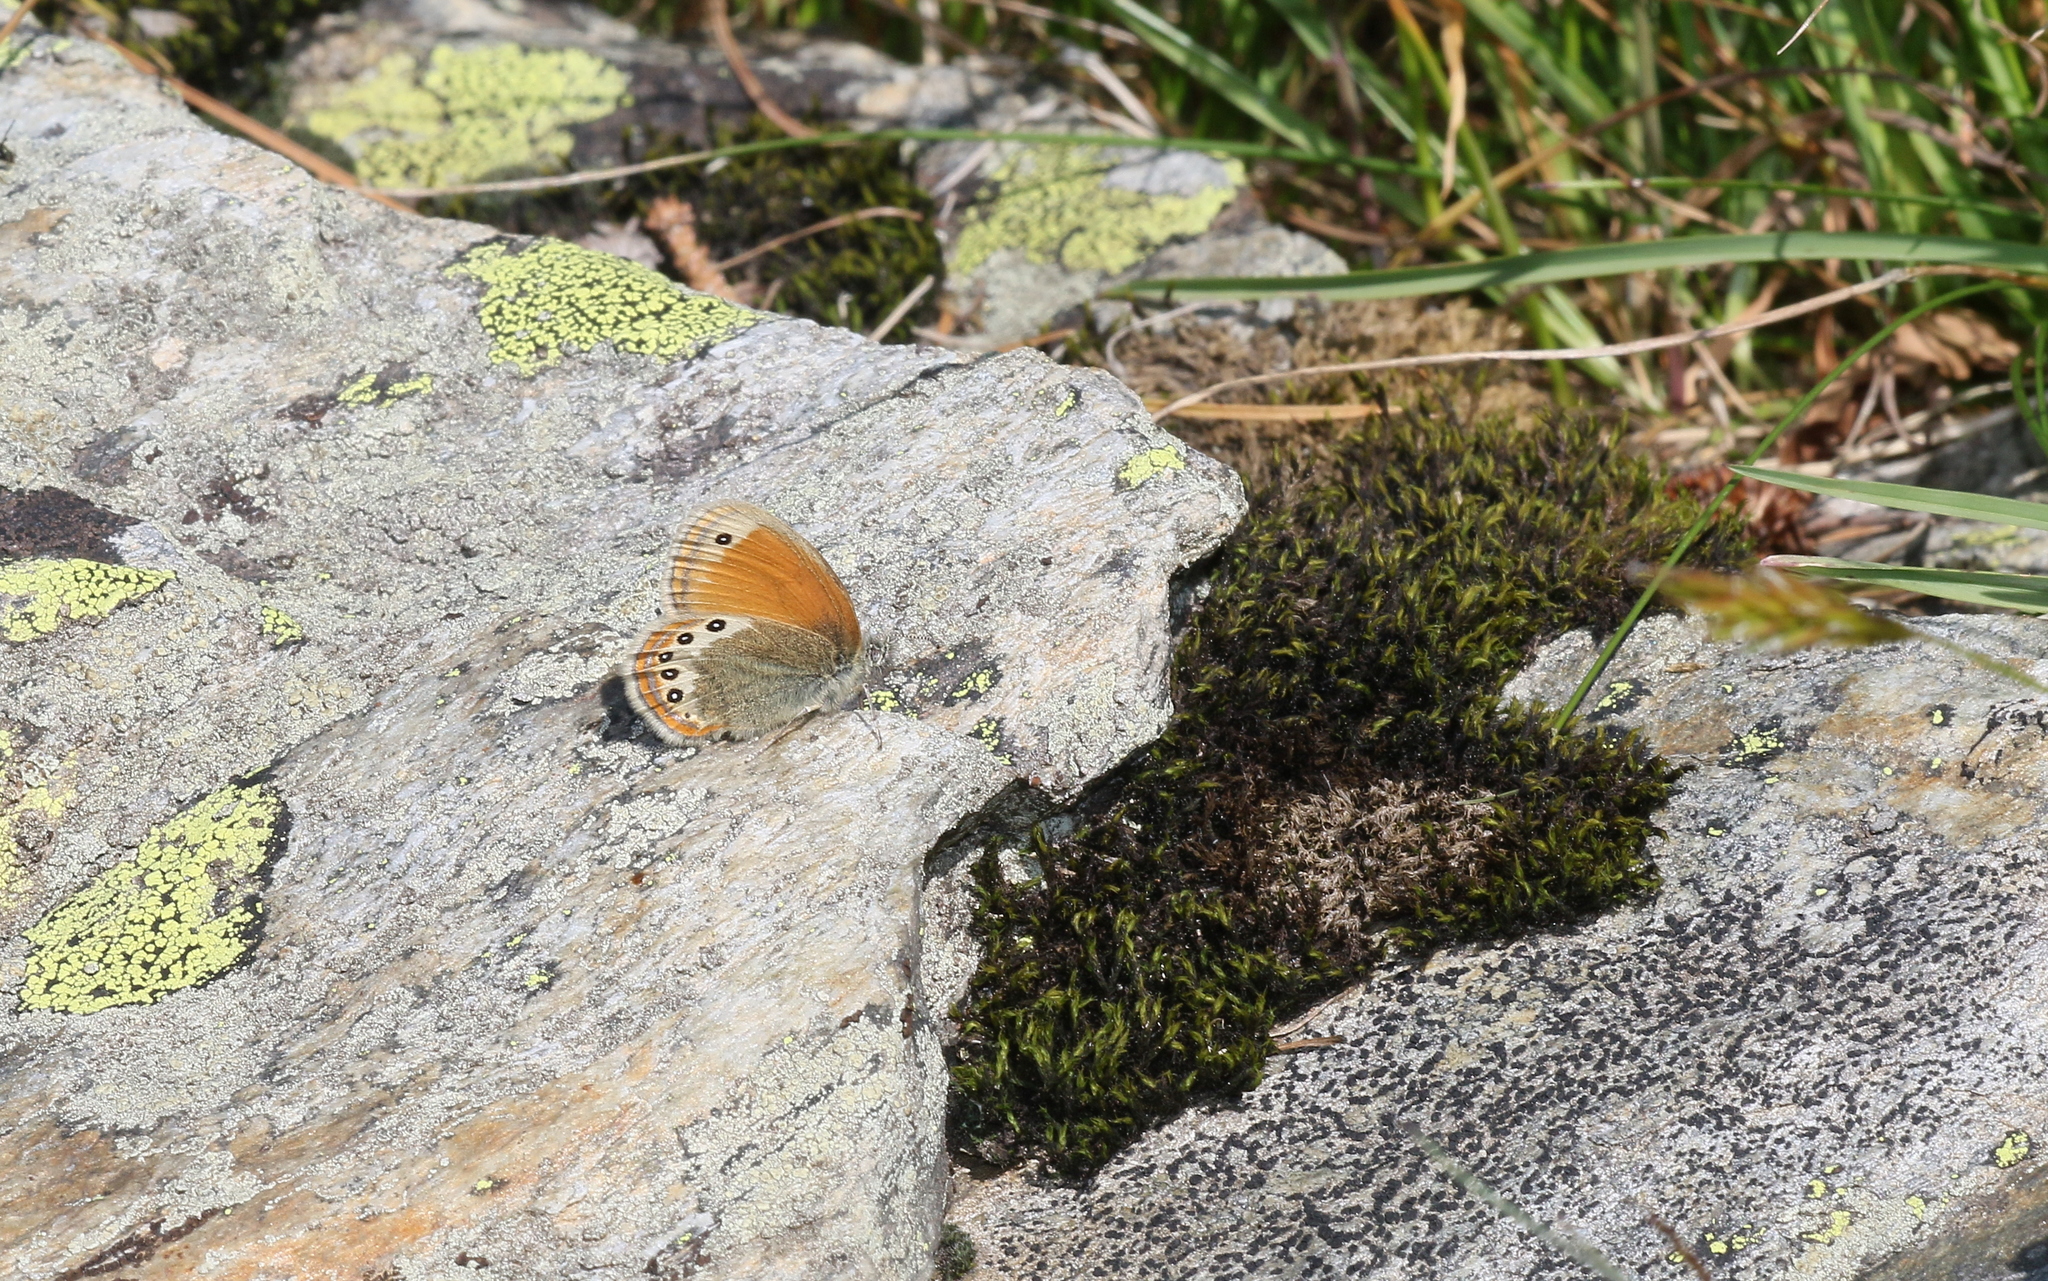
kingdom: Animalia
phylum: Arthropoda
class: Insecta
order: Lepidoptera
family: Nymphalidae
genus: Coenonympha
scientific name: Coenonympha
